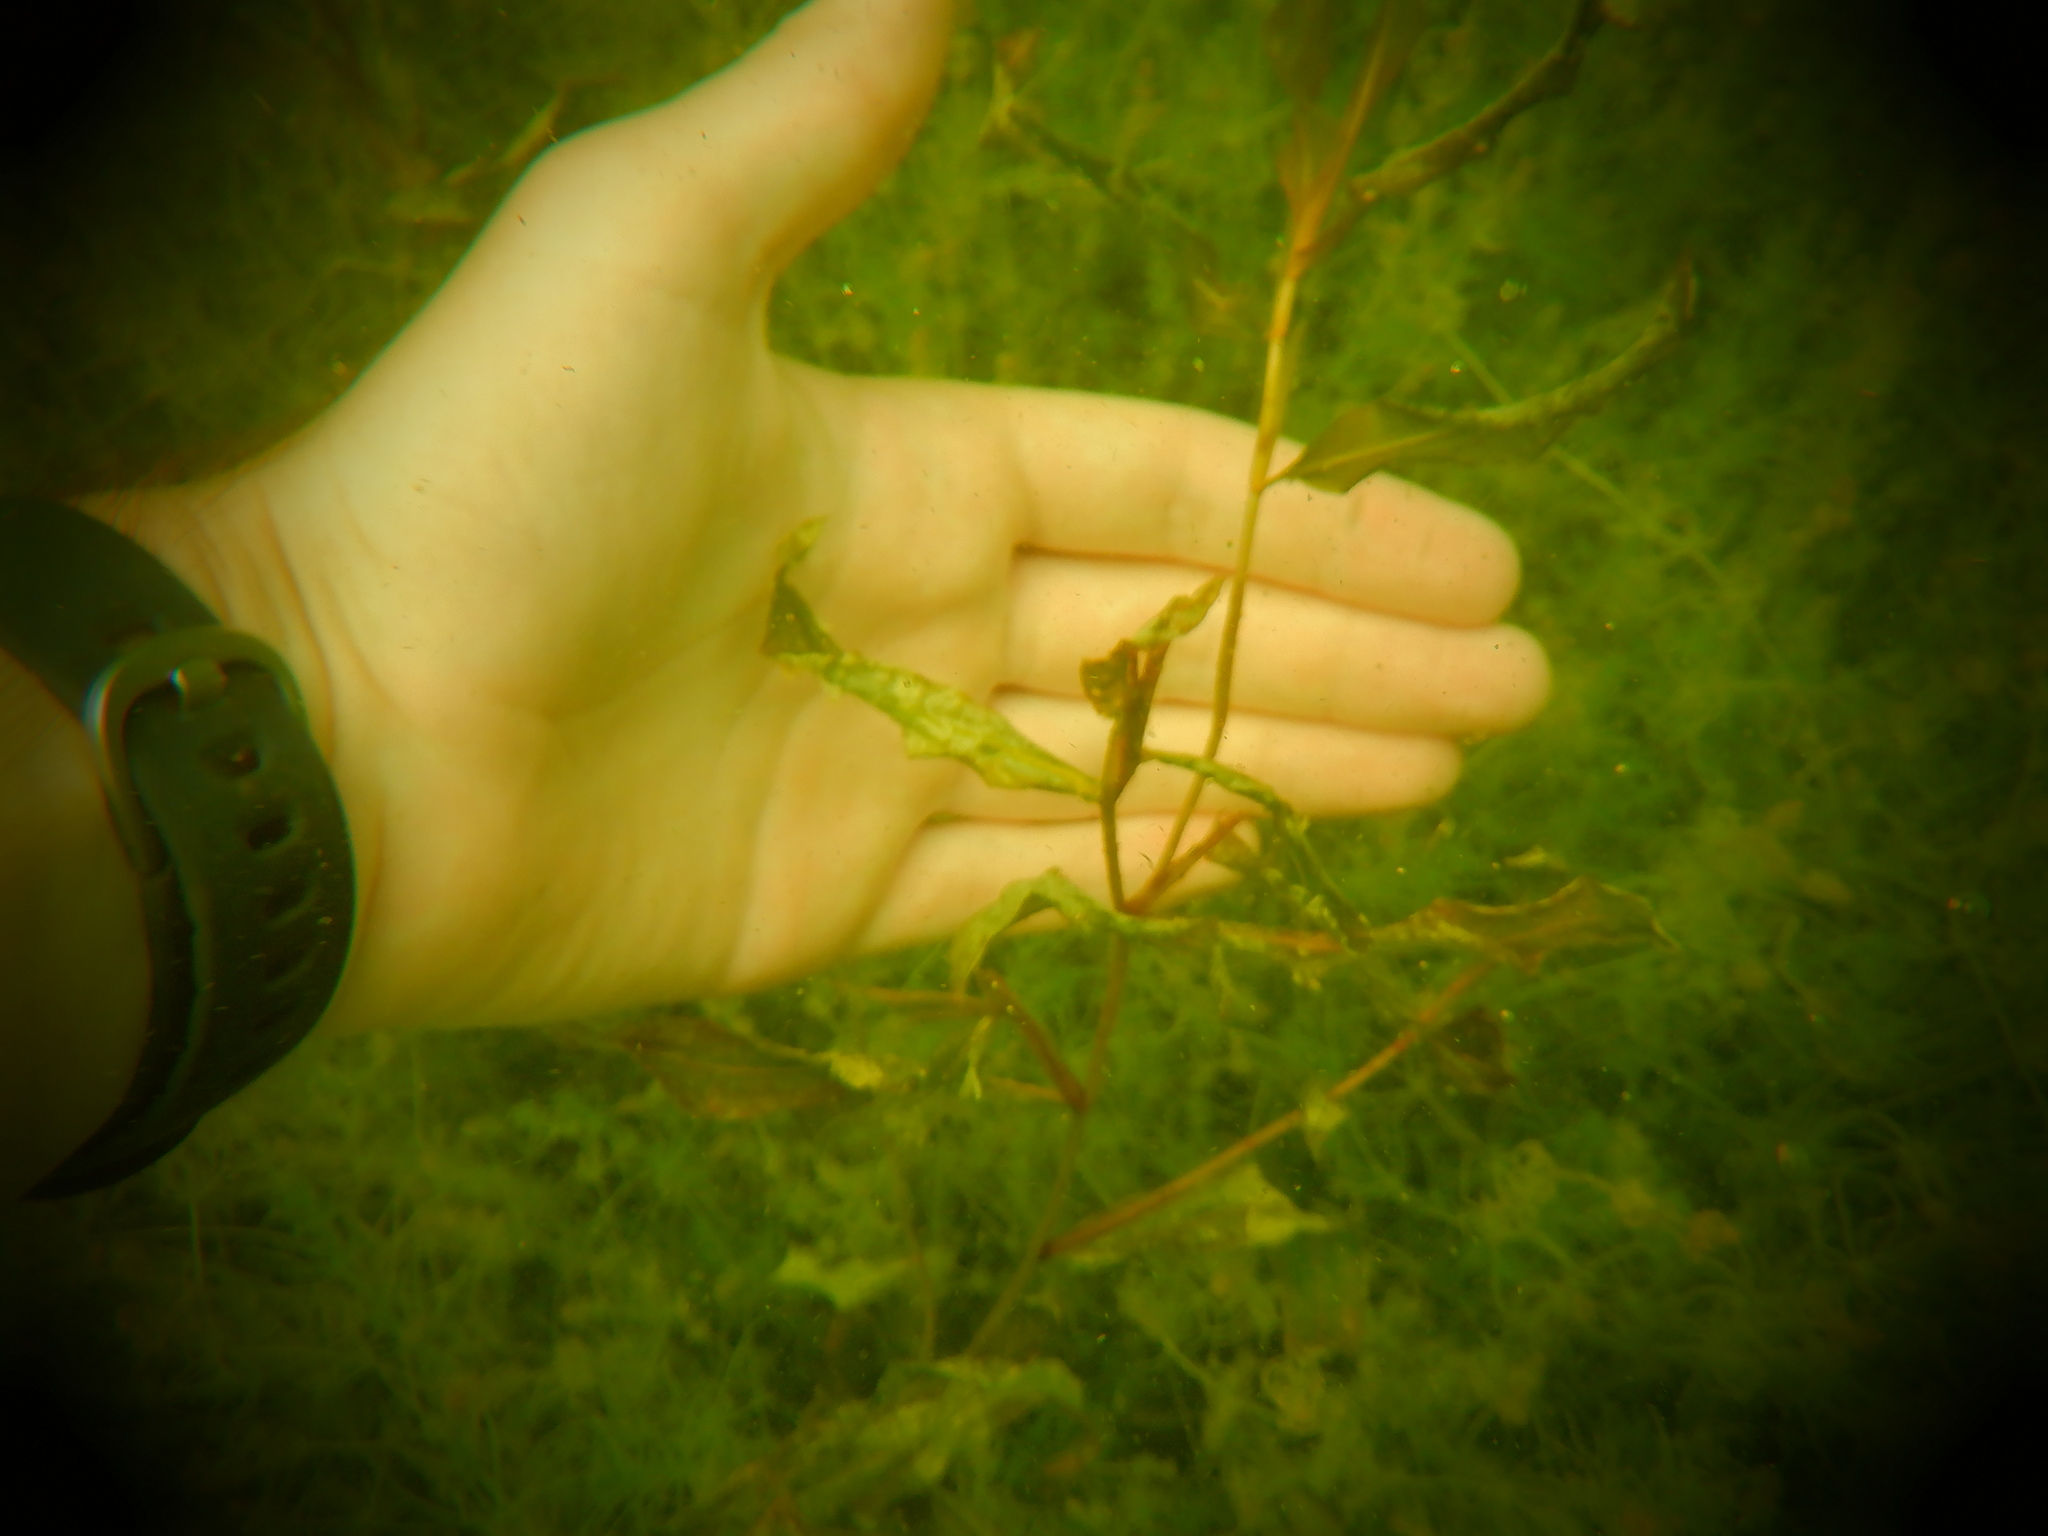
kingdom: Plantae
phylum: Tracheophyta
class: Liliopsida
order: Alismatales
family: Potamogetonaceae
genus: Potamogeton
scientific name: Potamogeton illinoensis
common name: Illinois pondweed
